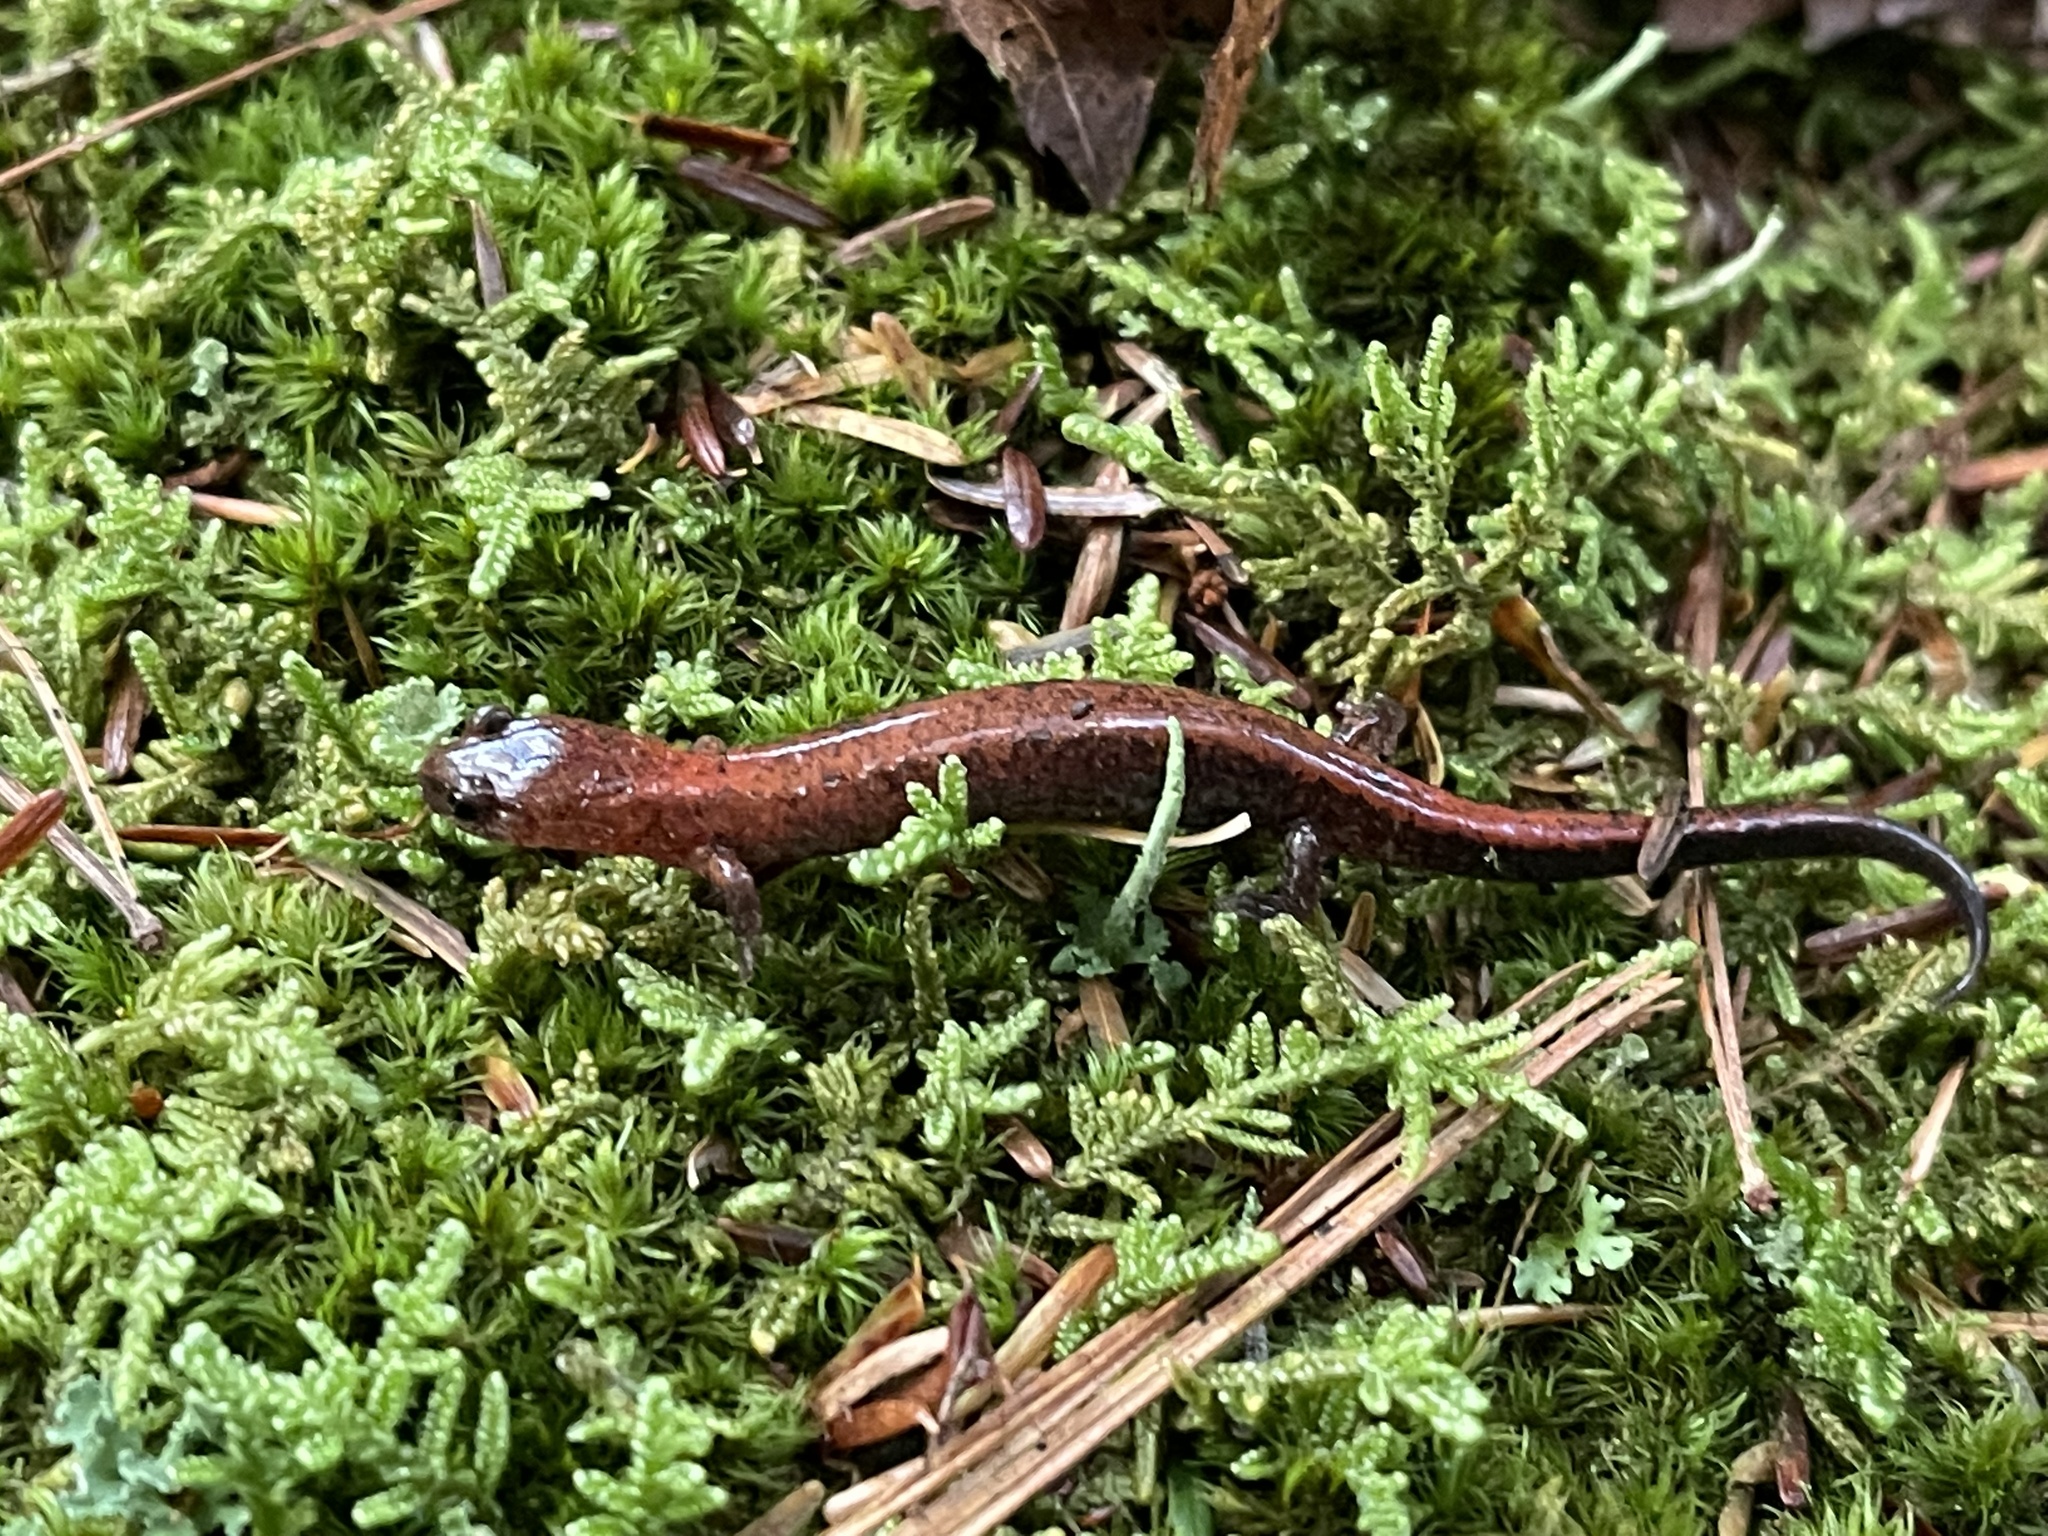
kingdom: Animalia
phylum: Chordata
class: Amphibia
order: Caudata
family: Plethodontidae
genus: Plethodon
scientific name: Plethodon cinereus
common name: Redback salamander
